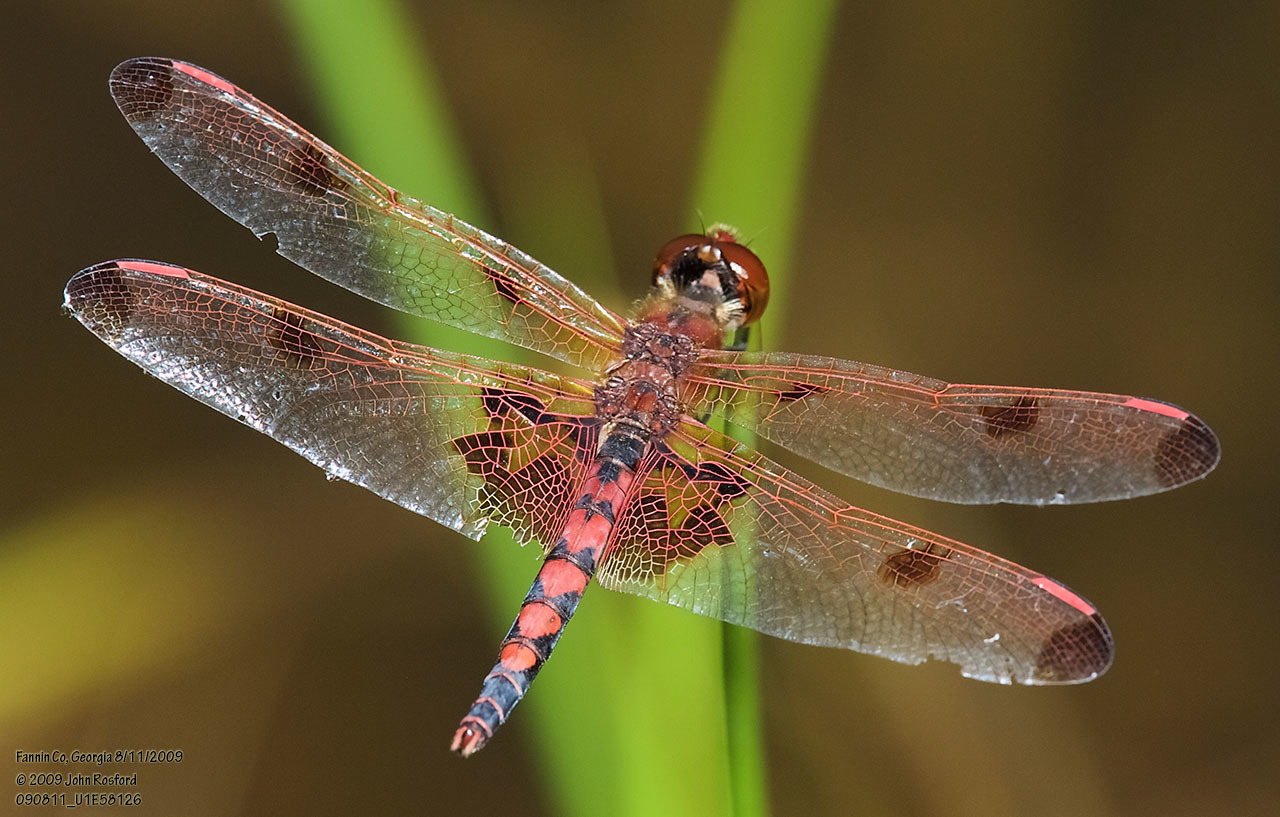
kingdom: Animalia
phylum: Arthropoda
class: Insecta
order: Odonata
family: Libellulidae
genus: Celithemis
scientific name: Celithemis elisa
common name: Calico pennant
